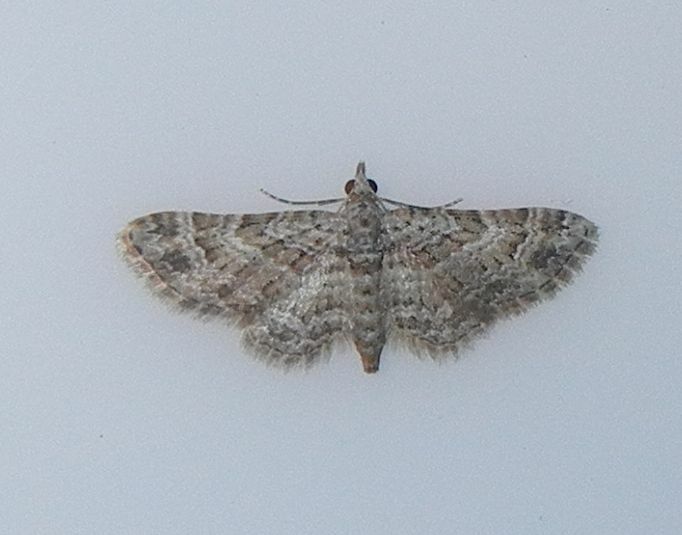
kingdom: Animalia
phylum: Arthropoda
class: Insecta
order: Lepidoptera
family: Geometridae
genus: Gymnoscelis
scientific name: Gymnoscelis rufifasciata
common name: Double-striped pug
